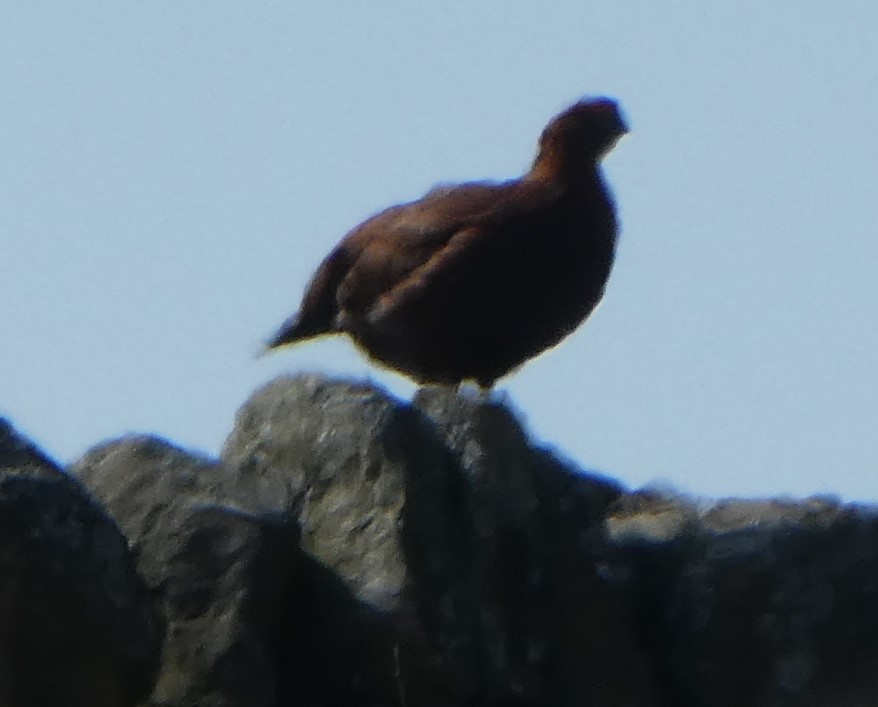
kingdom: Animalia
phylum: Chordata
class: Aves
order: Galliformes
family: Phasianidae
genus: Lagopus
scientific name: Lagopus lagopus
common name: Willow ptarmigan
